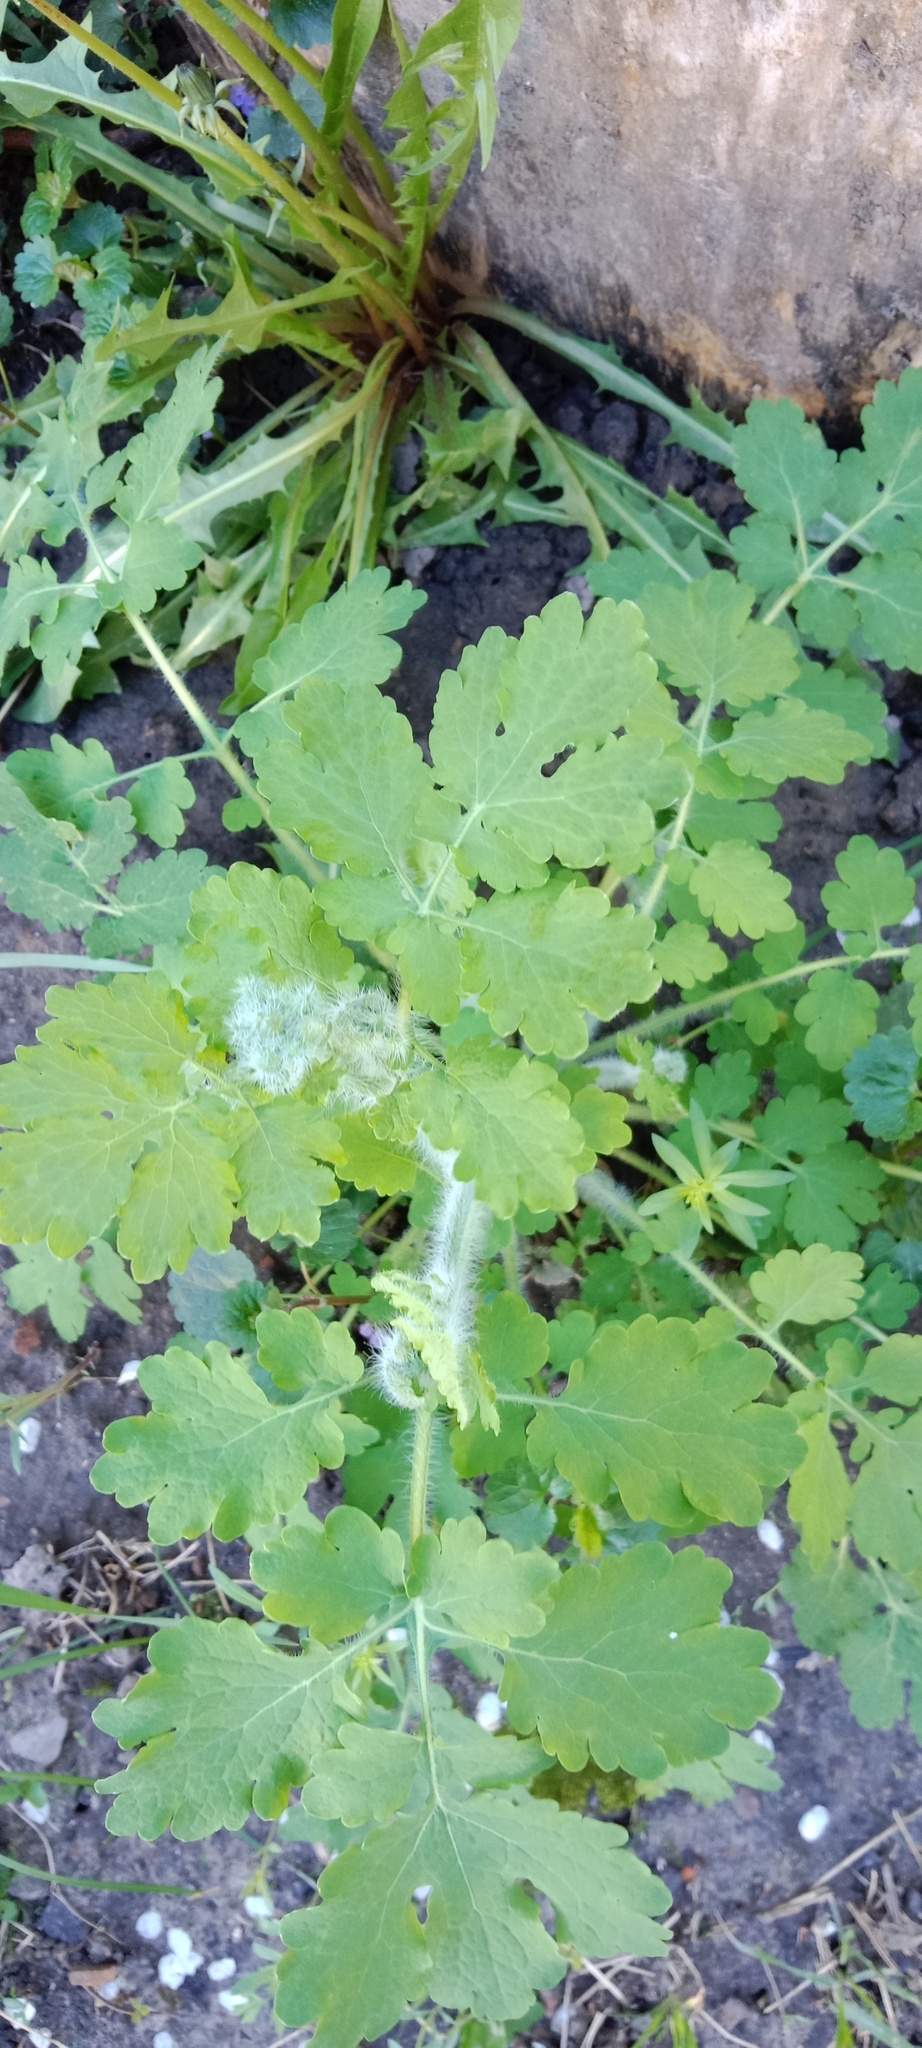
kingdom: Plantae
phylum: Tracheophyta
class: Magnoliopsida
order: Ranunculales
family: Papaveraceae
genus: Chelidonium
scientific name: Chelidonium majus
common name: Greater celandine
